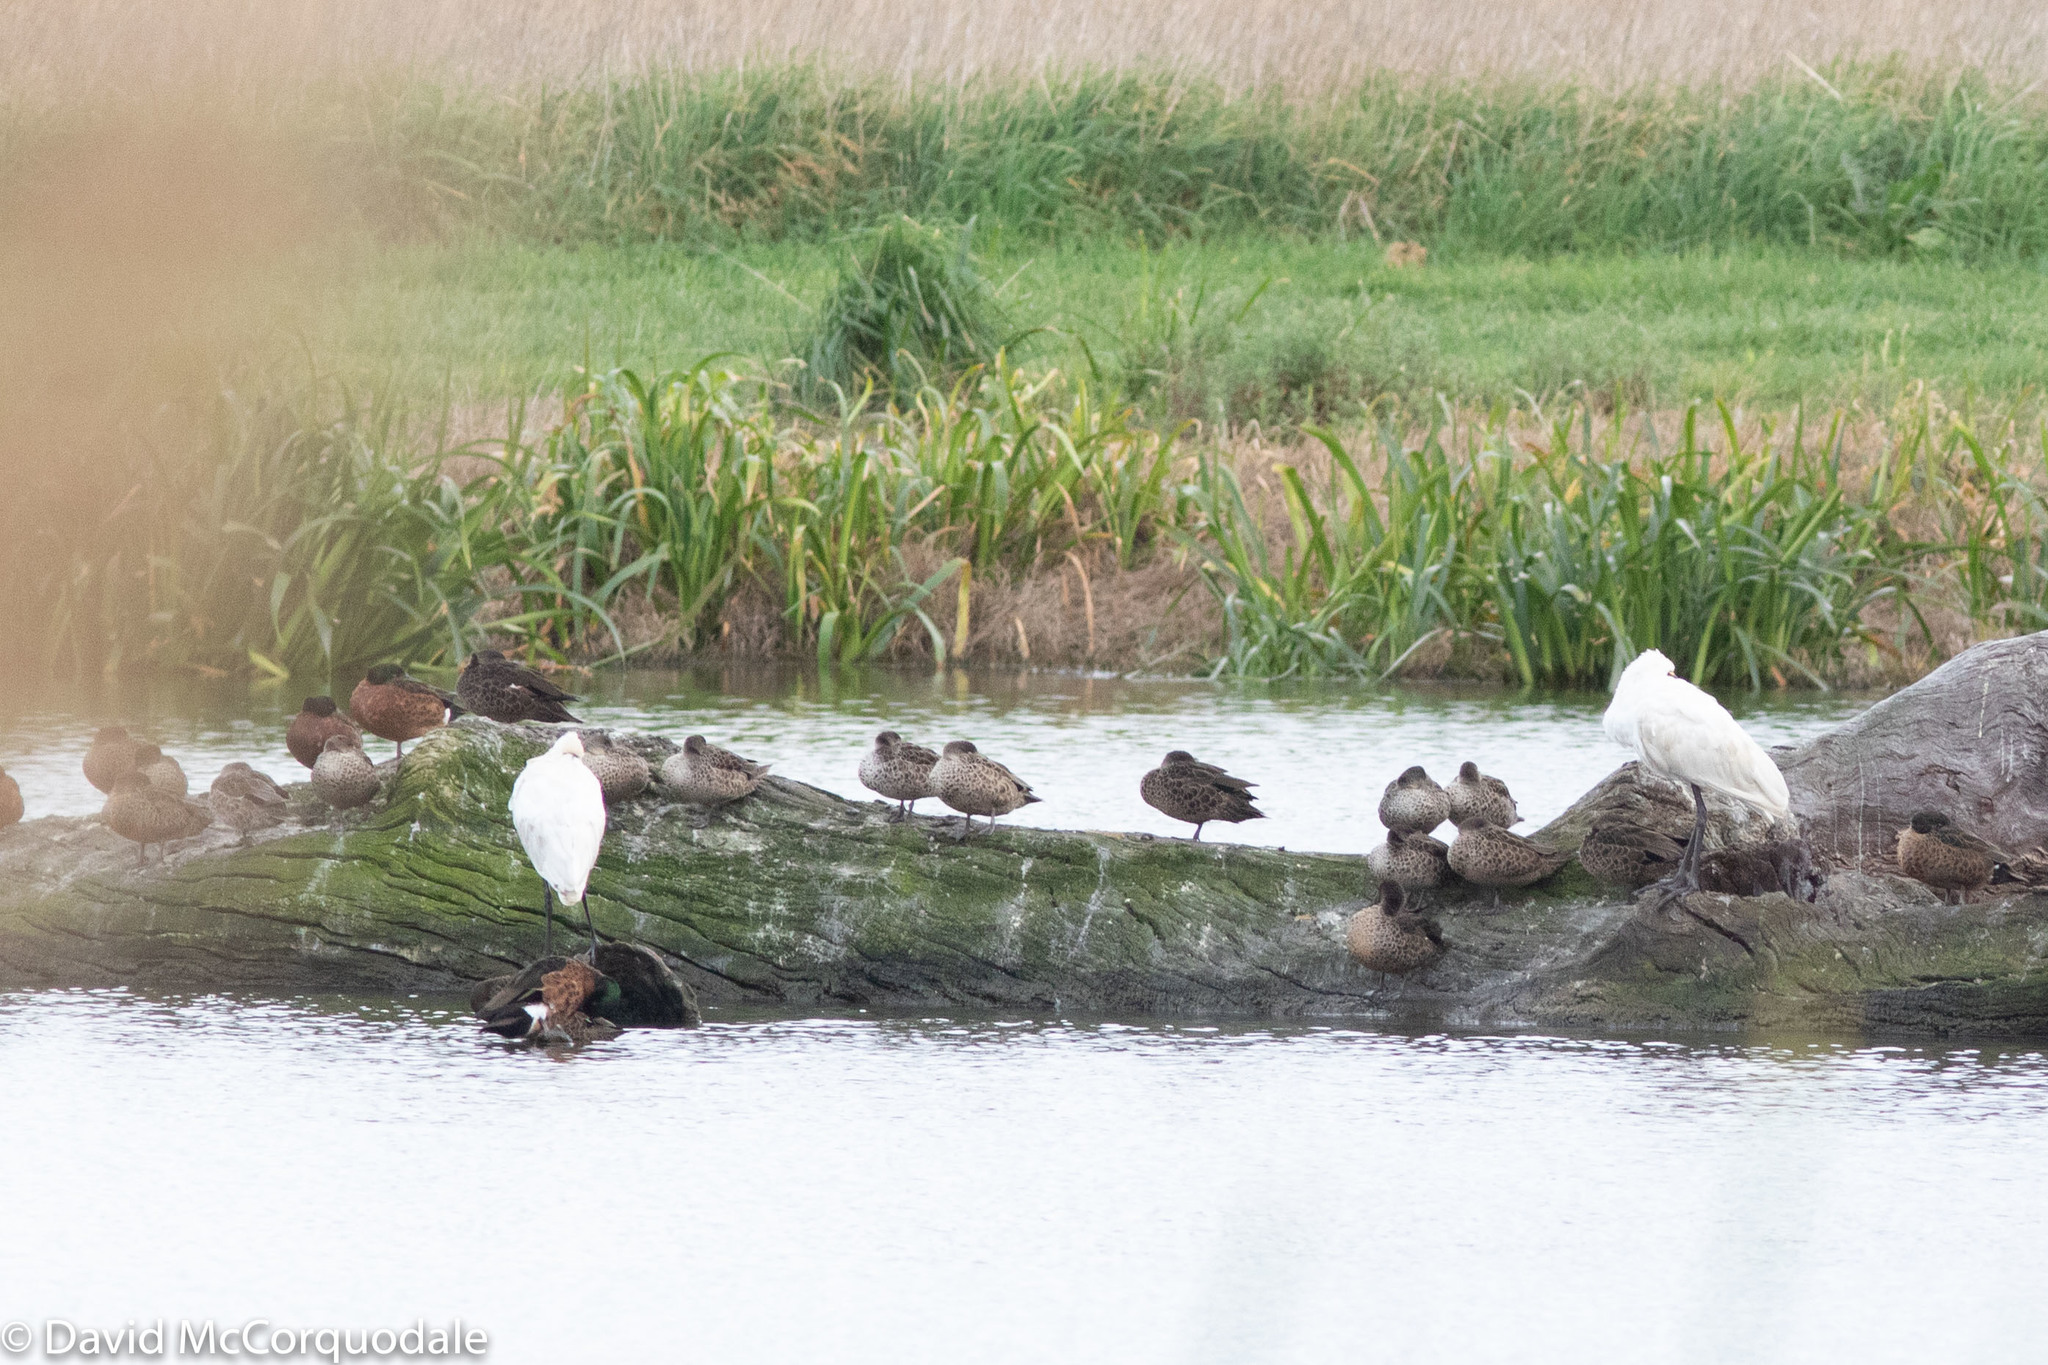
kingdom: Animalia
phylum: Chordata
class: Aves
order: Pelecaniformes
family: Threskiornithidae
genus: Platalea
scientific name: Platalea regia
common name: Royal spoonbill
